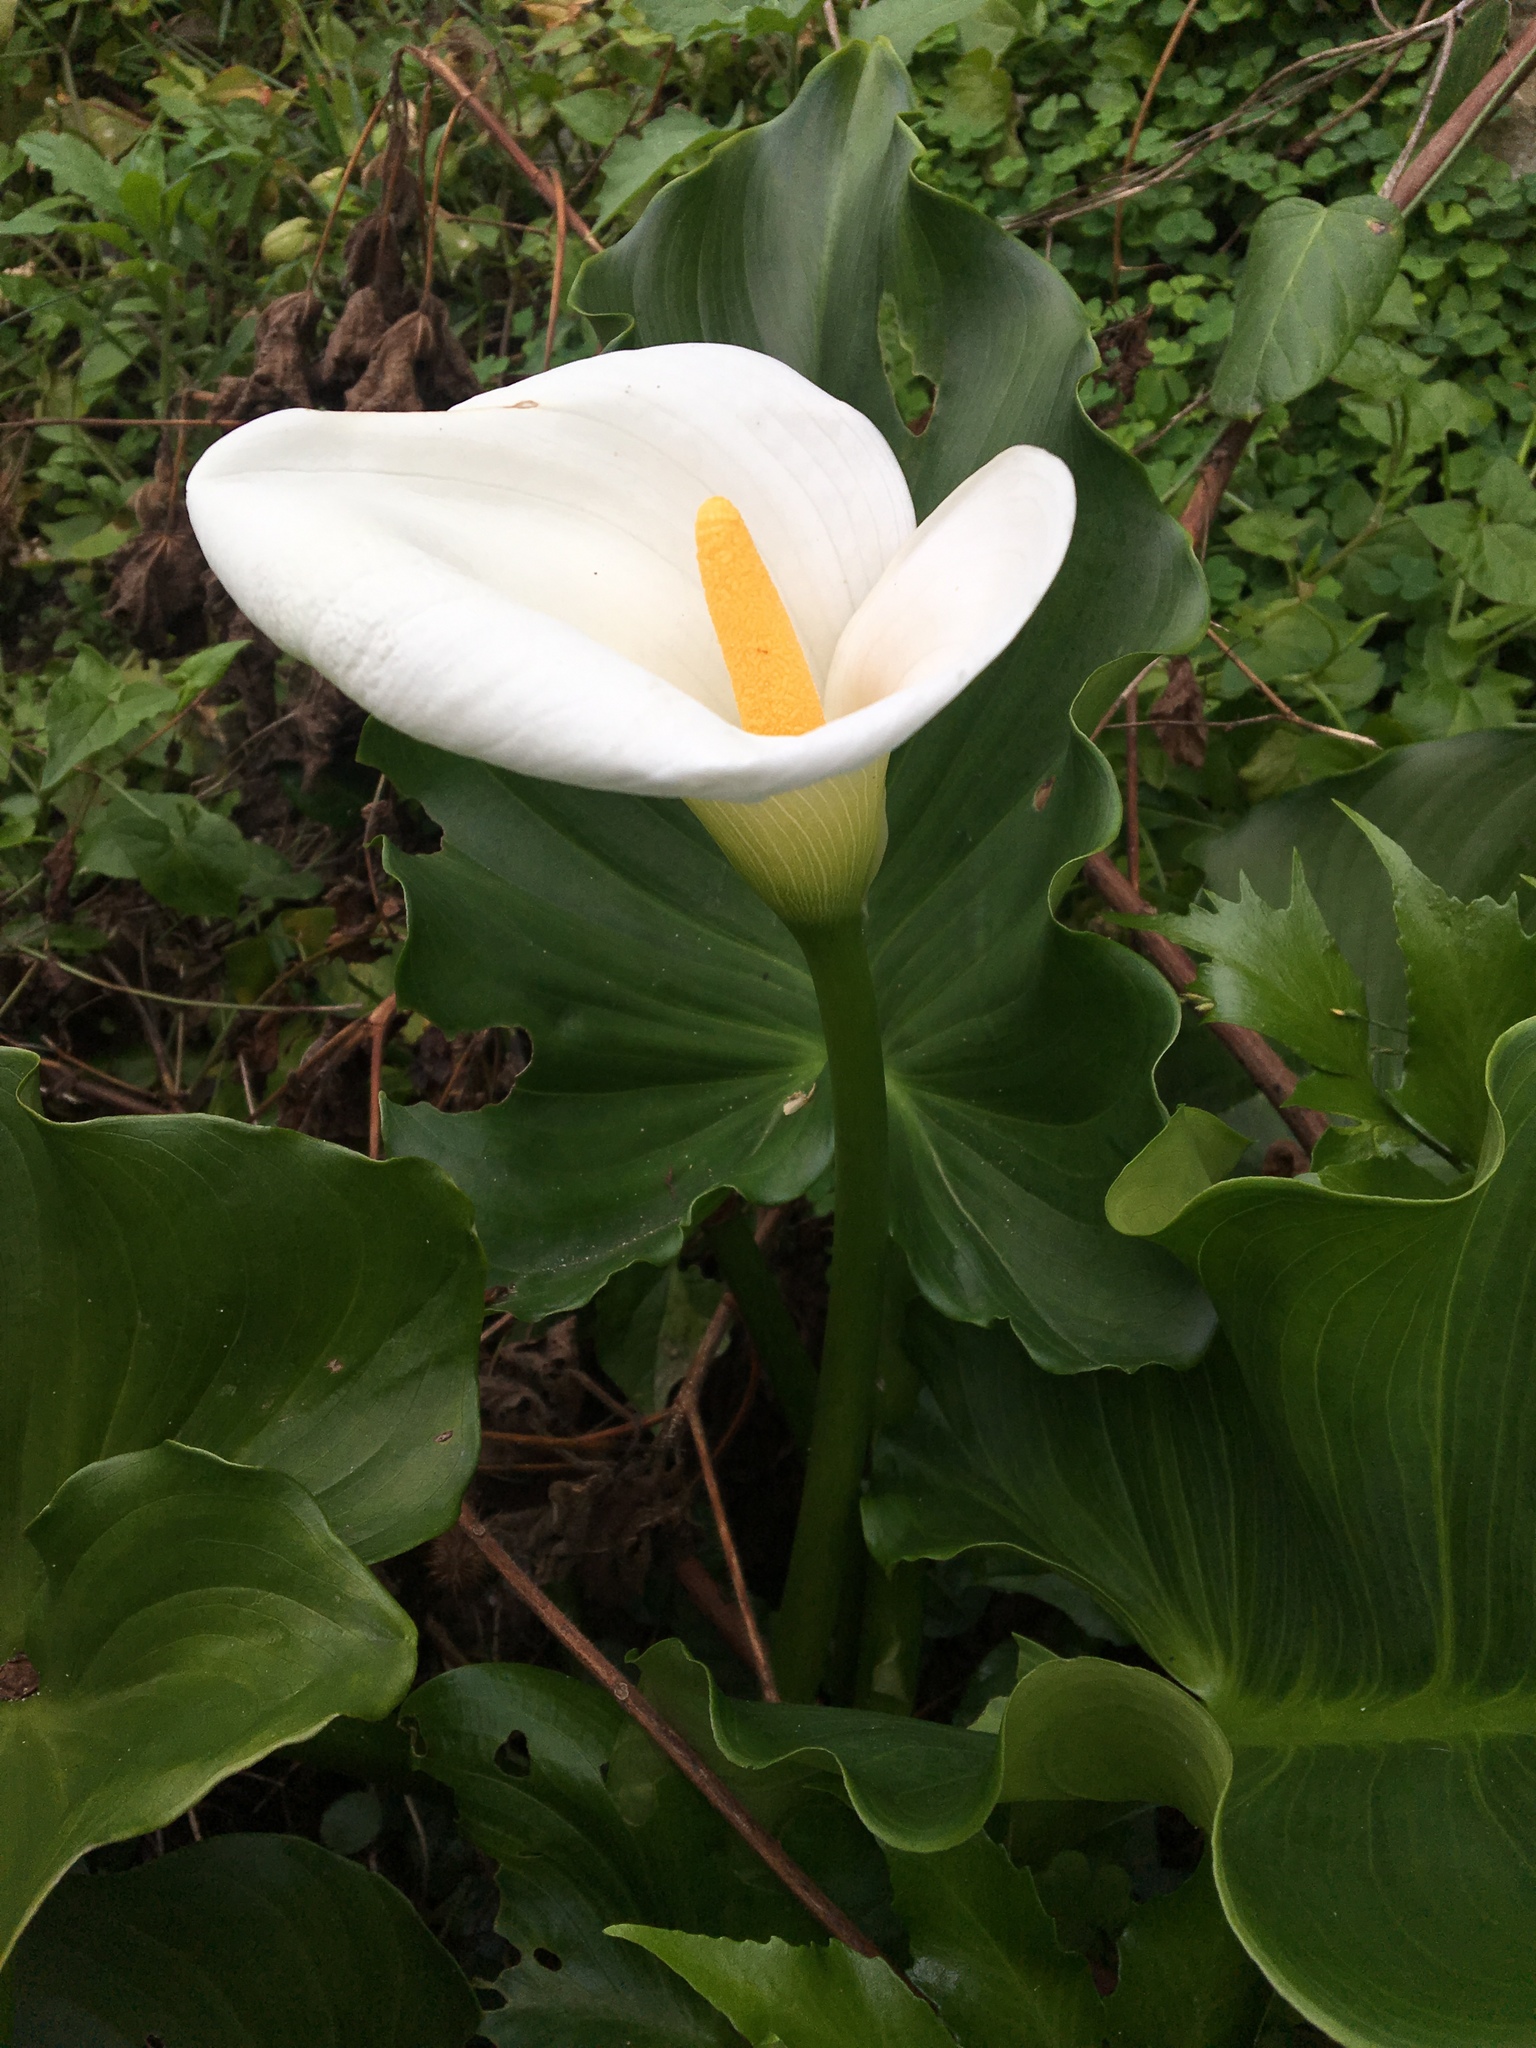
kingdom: Plantae
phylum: Tracheophyta
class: Liliopsida
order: Alismatales
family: Araceae
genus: Zantedeschia
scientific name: Zantedeschia aethiopica
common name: Altar-lily
